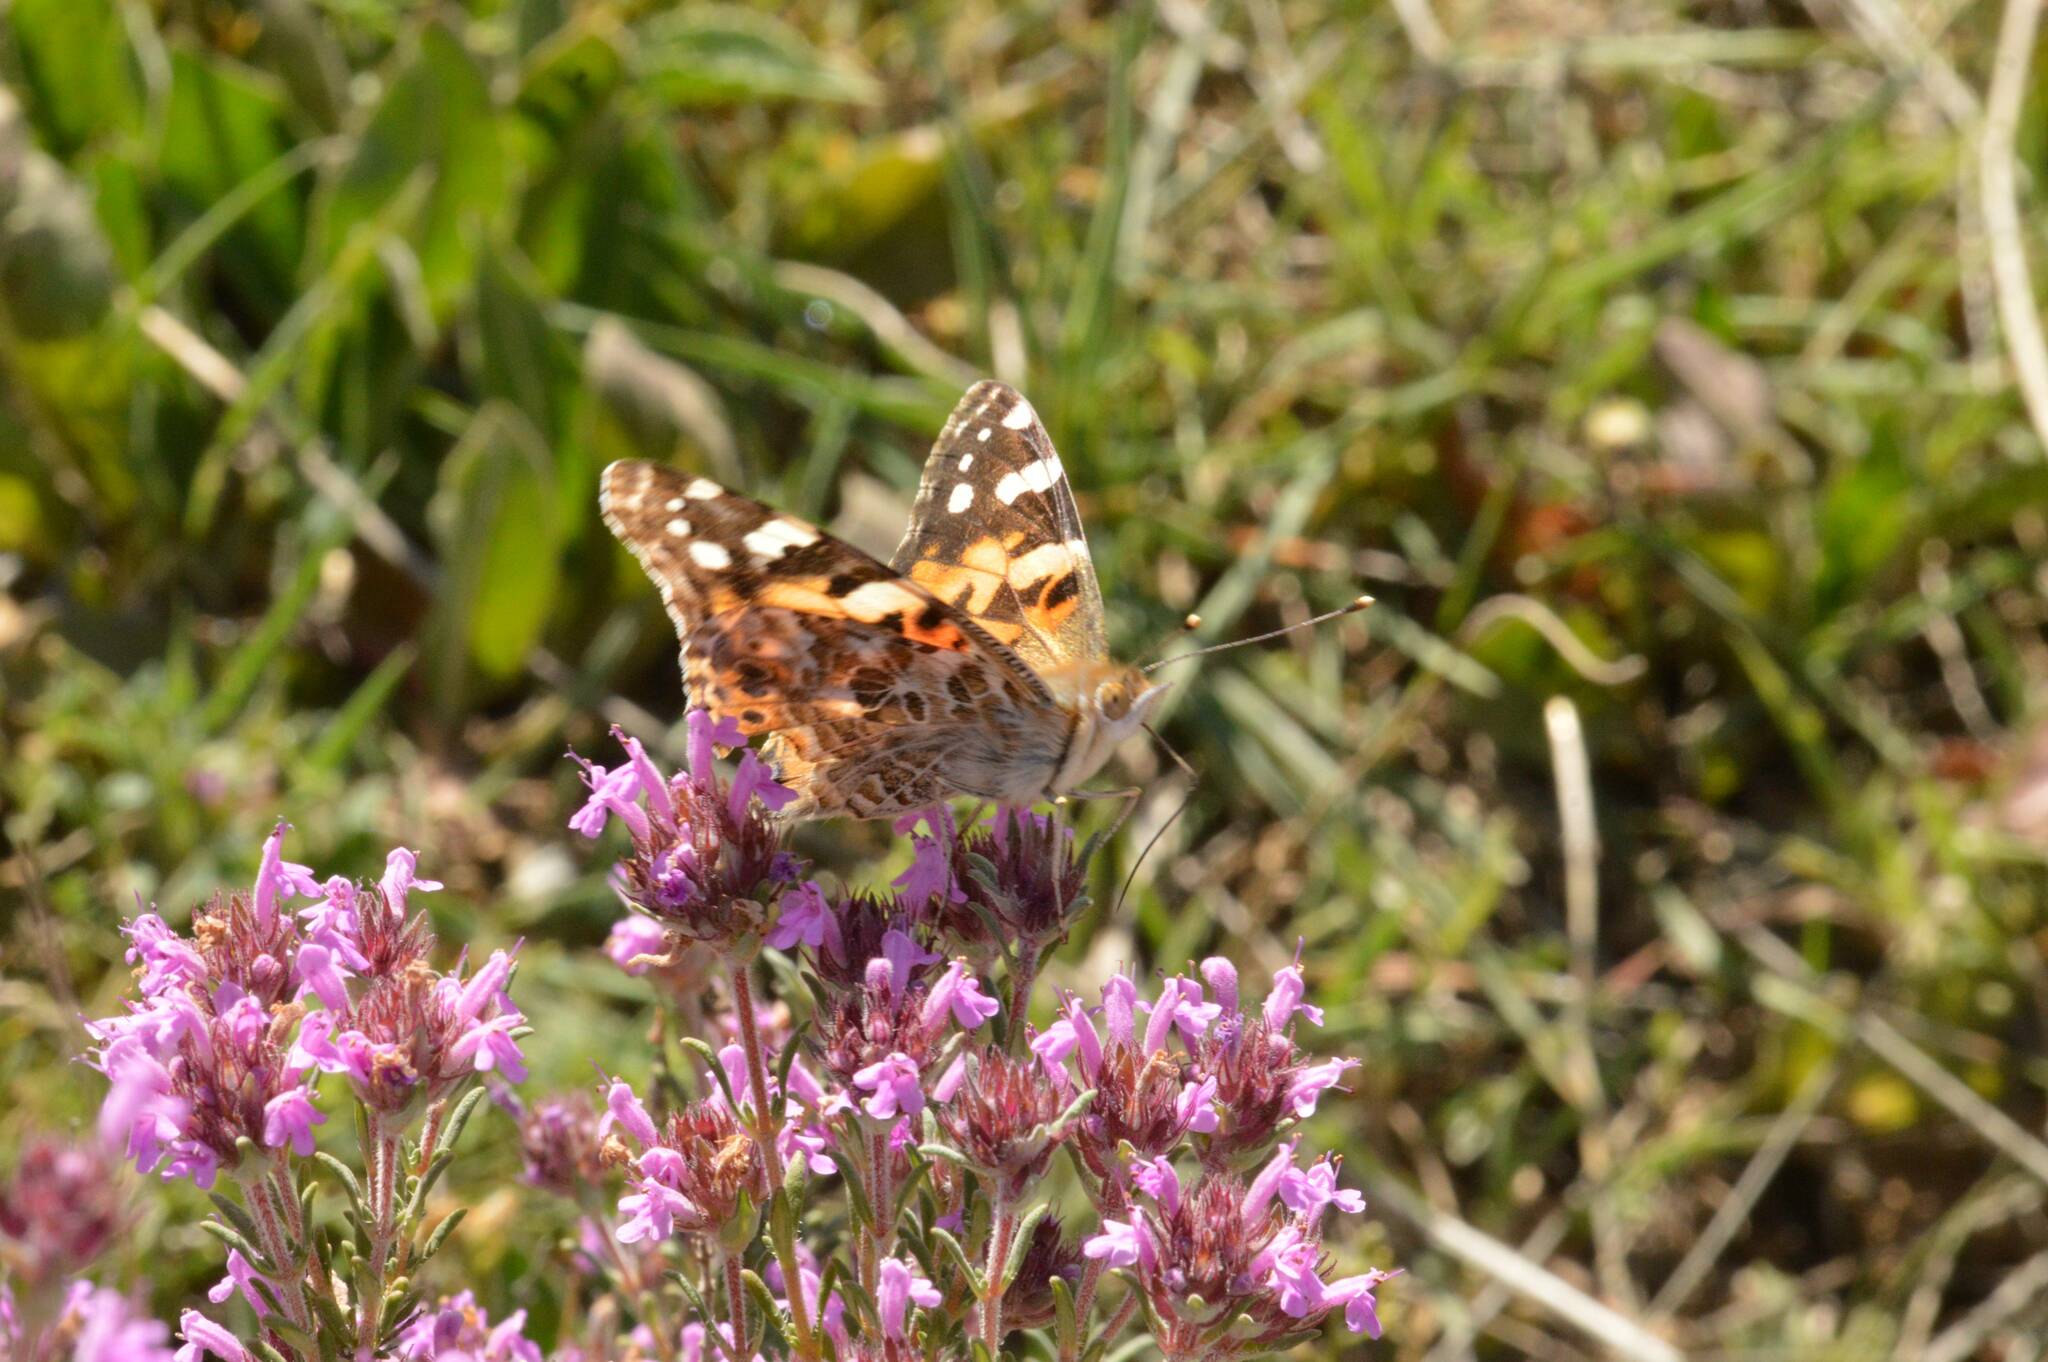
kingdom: Animalia
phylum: Arthropoda
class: Insecta
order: Lepidoptera
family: Nymphalidae
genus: Vanessa
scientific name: Vanessa cardui
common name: Painted lady
